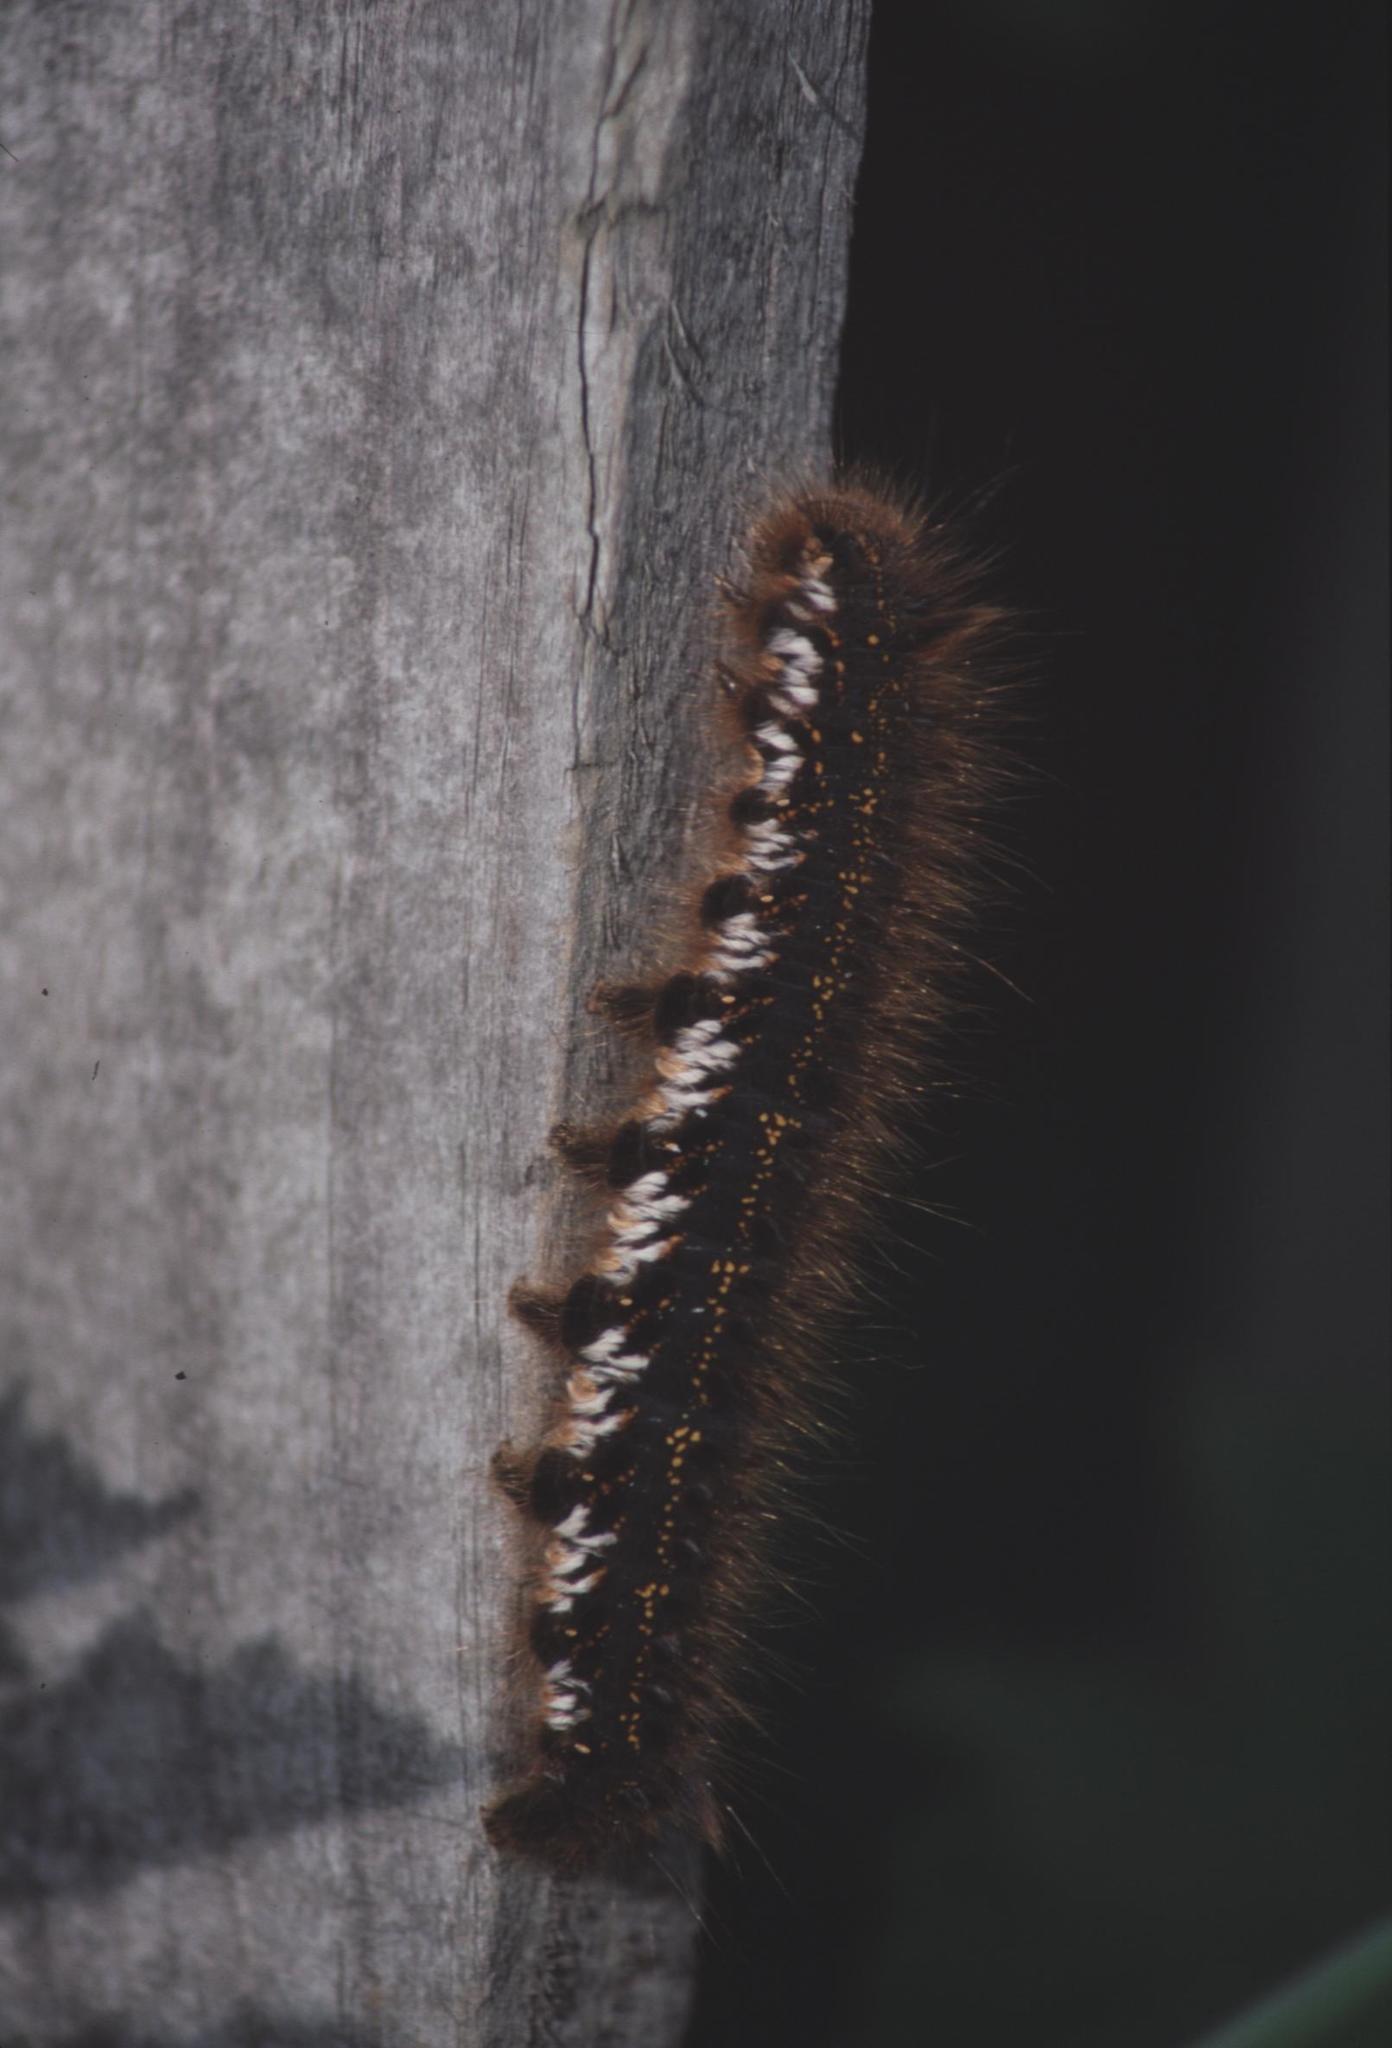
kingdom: Animalia
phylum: Arthropoda
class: Insecta
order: Lepidoptera
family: Lasiocampidae
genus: Euthrix
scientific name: Euthrix potatoria
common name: Drinker
